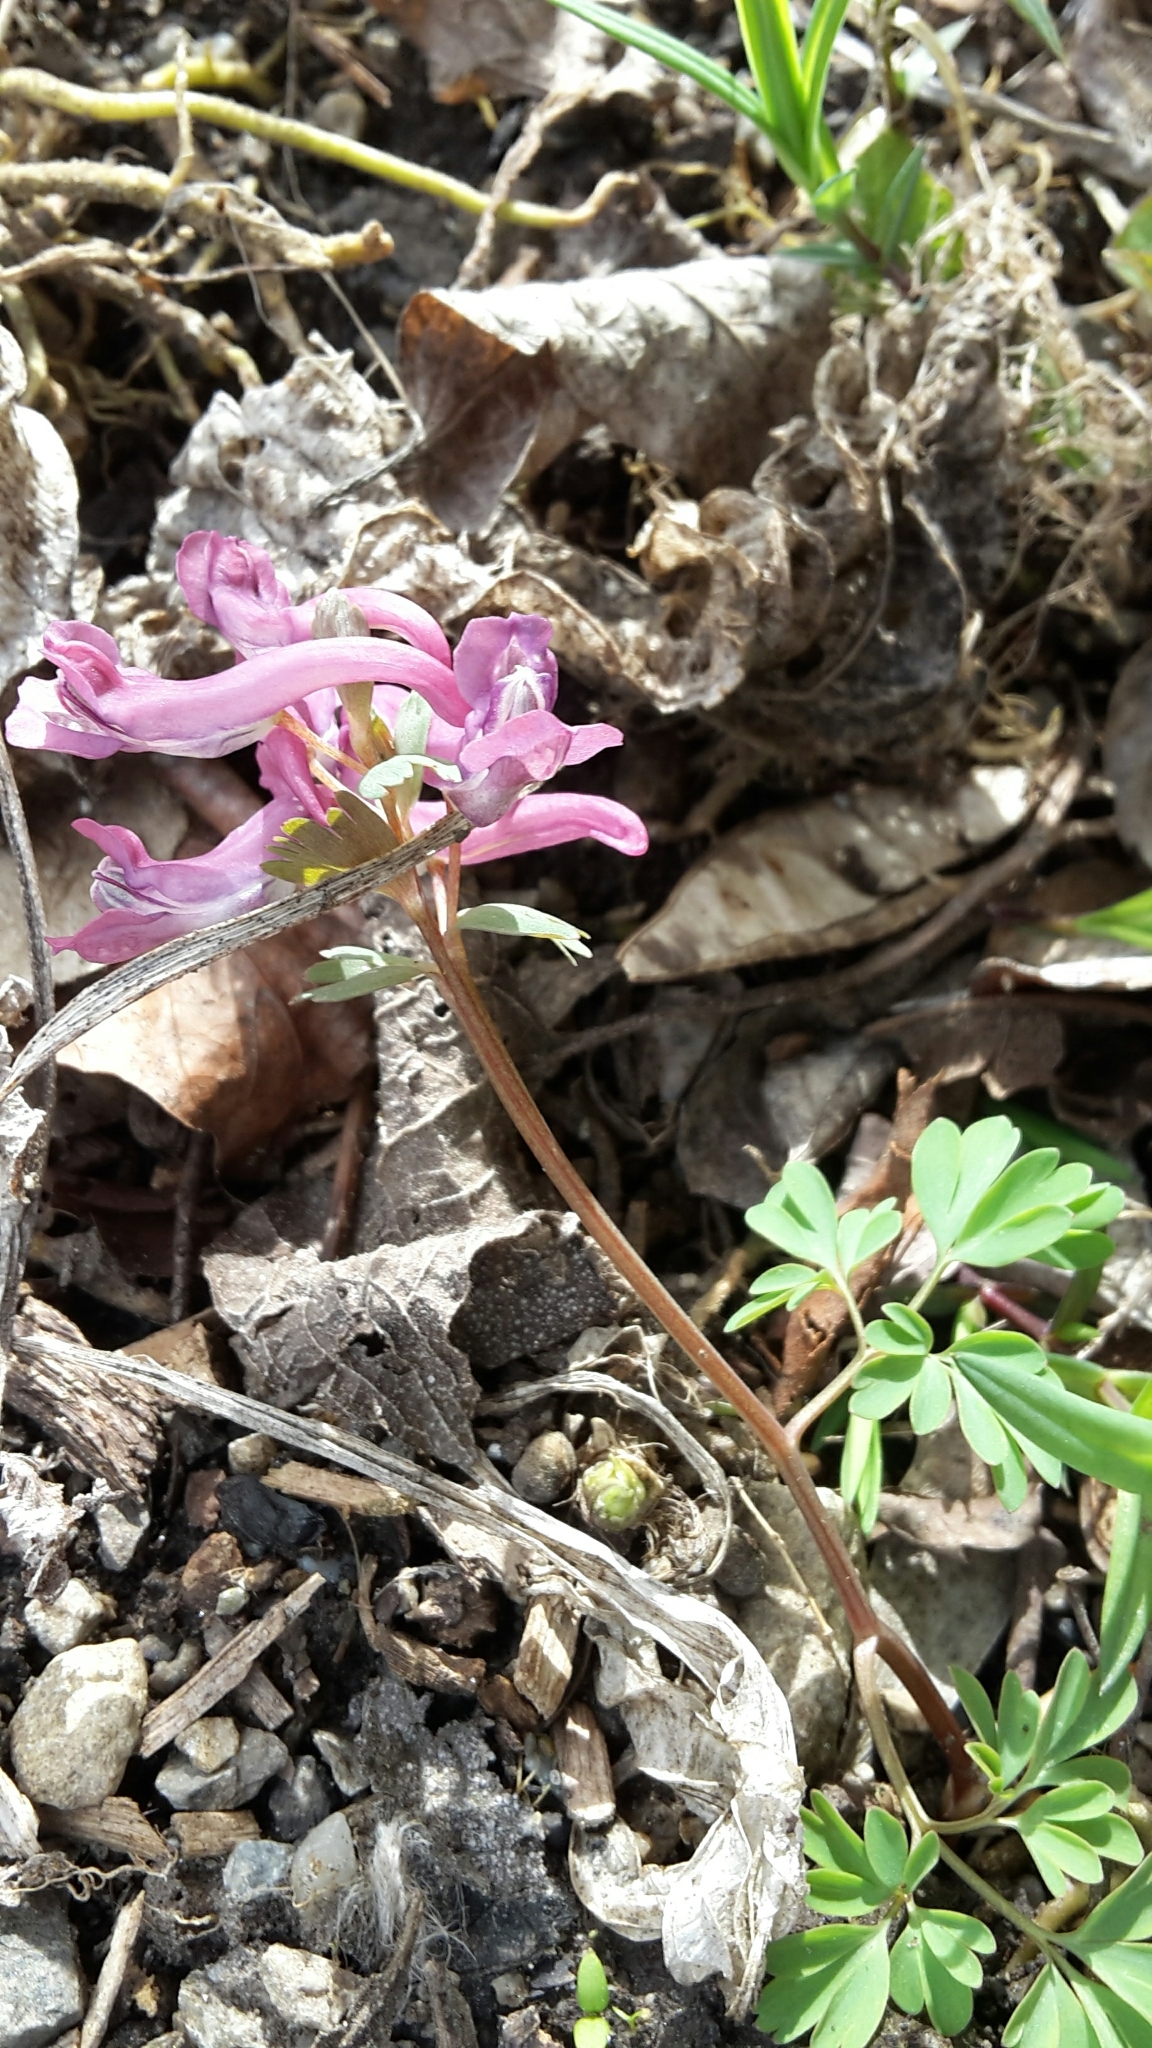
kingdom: Plantae
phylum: Tracheophyta
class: Magnoliopsida
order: Ranunculales
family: Papaveraceae
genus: Corydalis
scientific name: Corydalis solida
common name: Bird-in-a-bush
